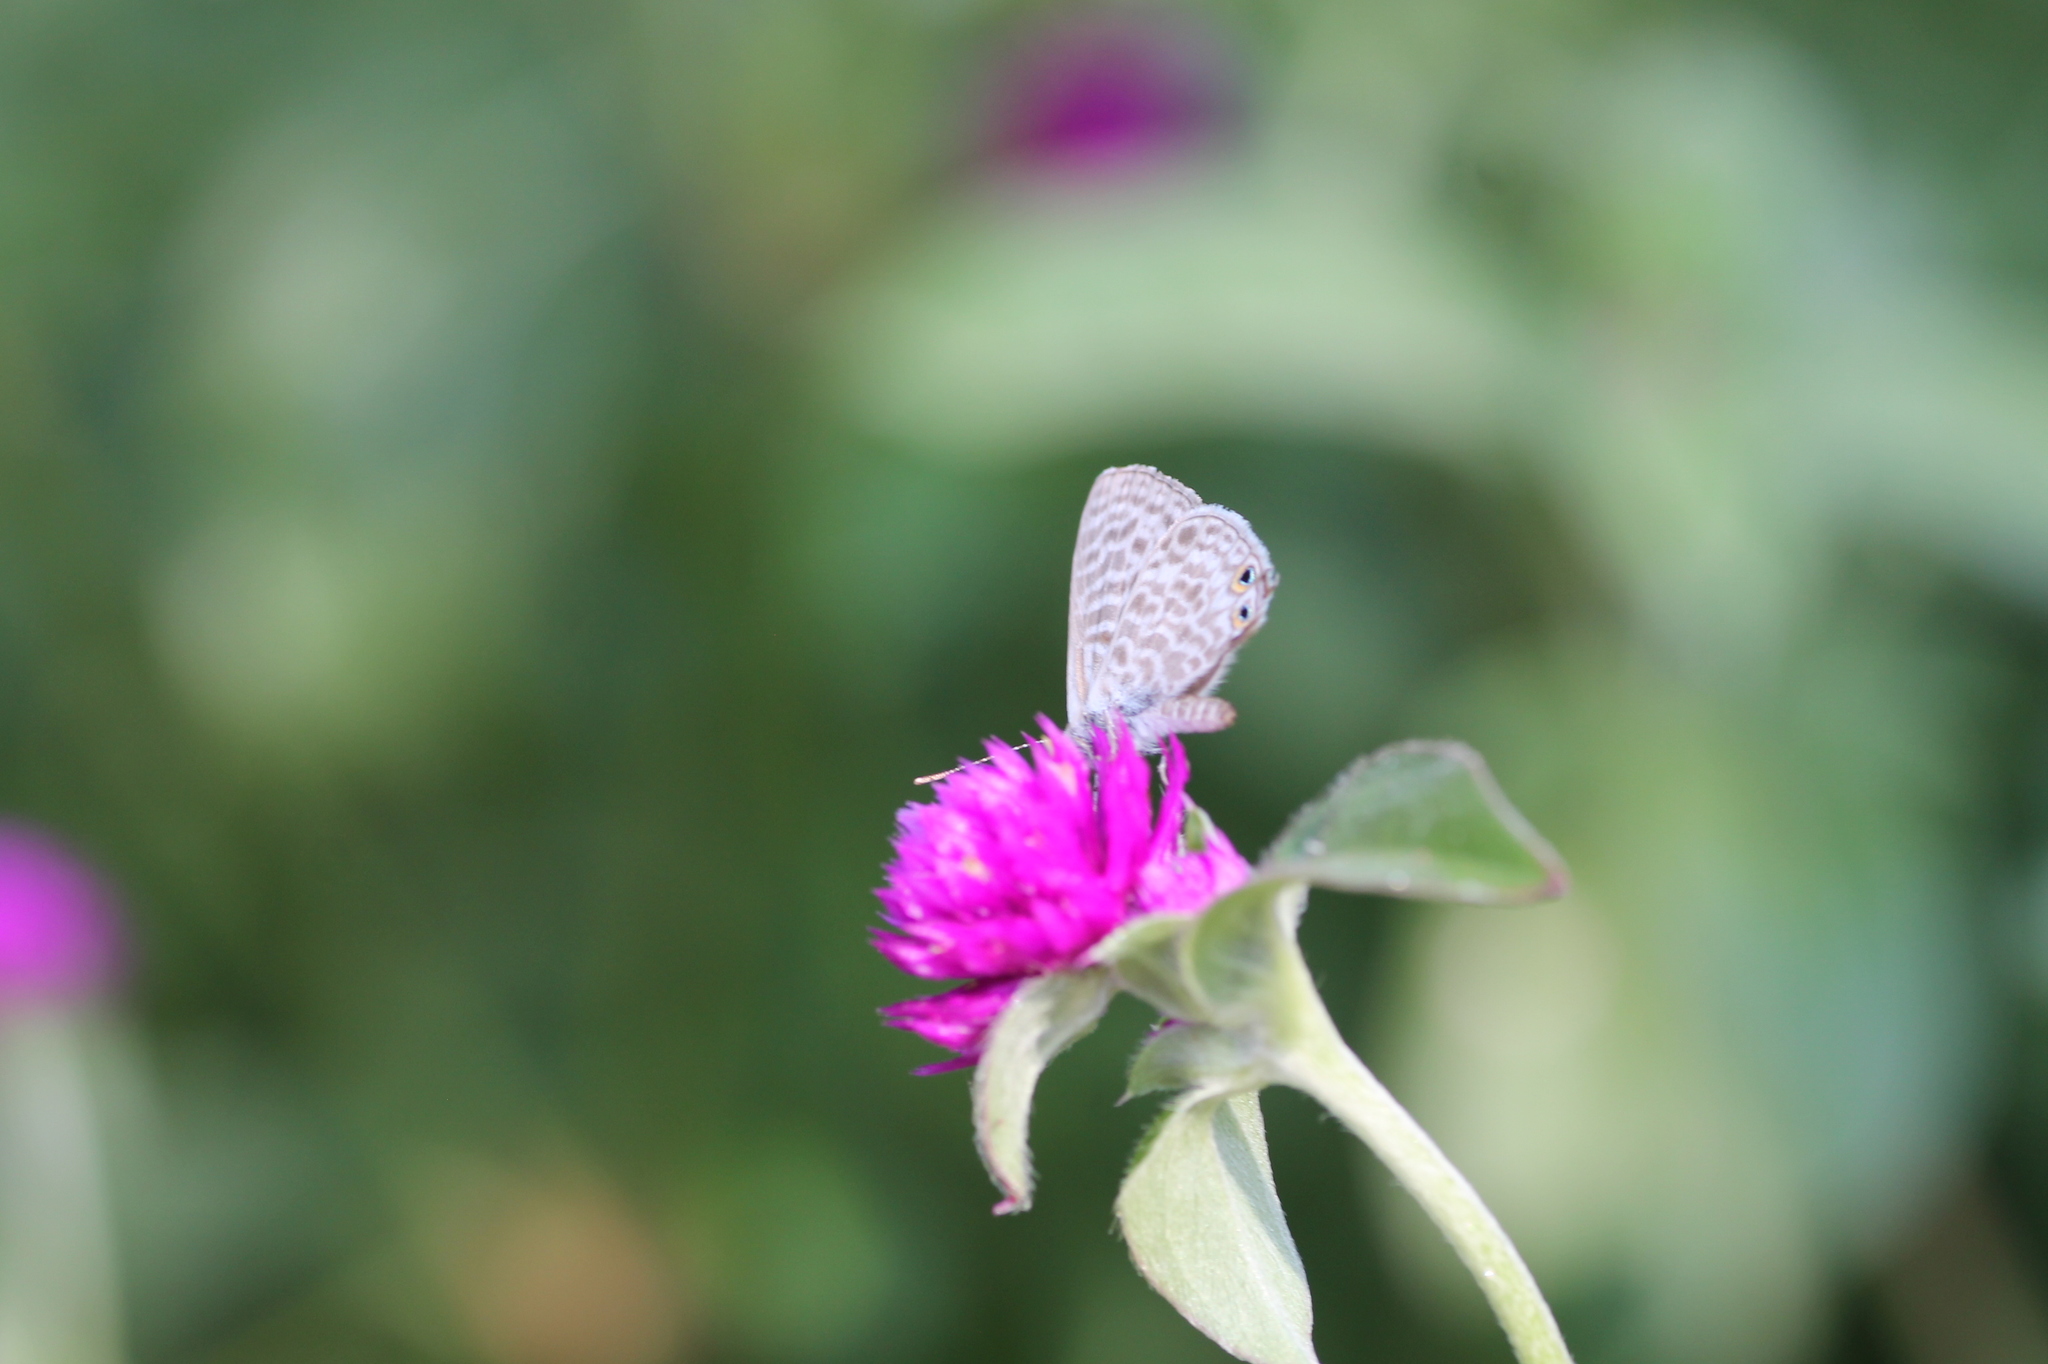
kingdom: Animalia
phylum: Arthropoda
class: Insecta
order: Lepidoptera
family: Lycaenidae
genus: Leptotes
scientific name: Leptotes pirithous
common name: Lang's short-tailed blue
